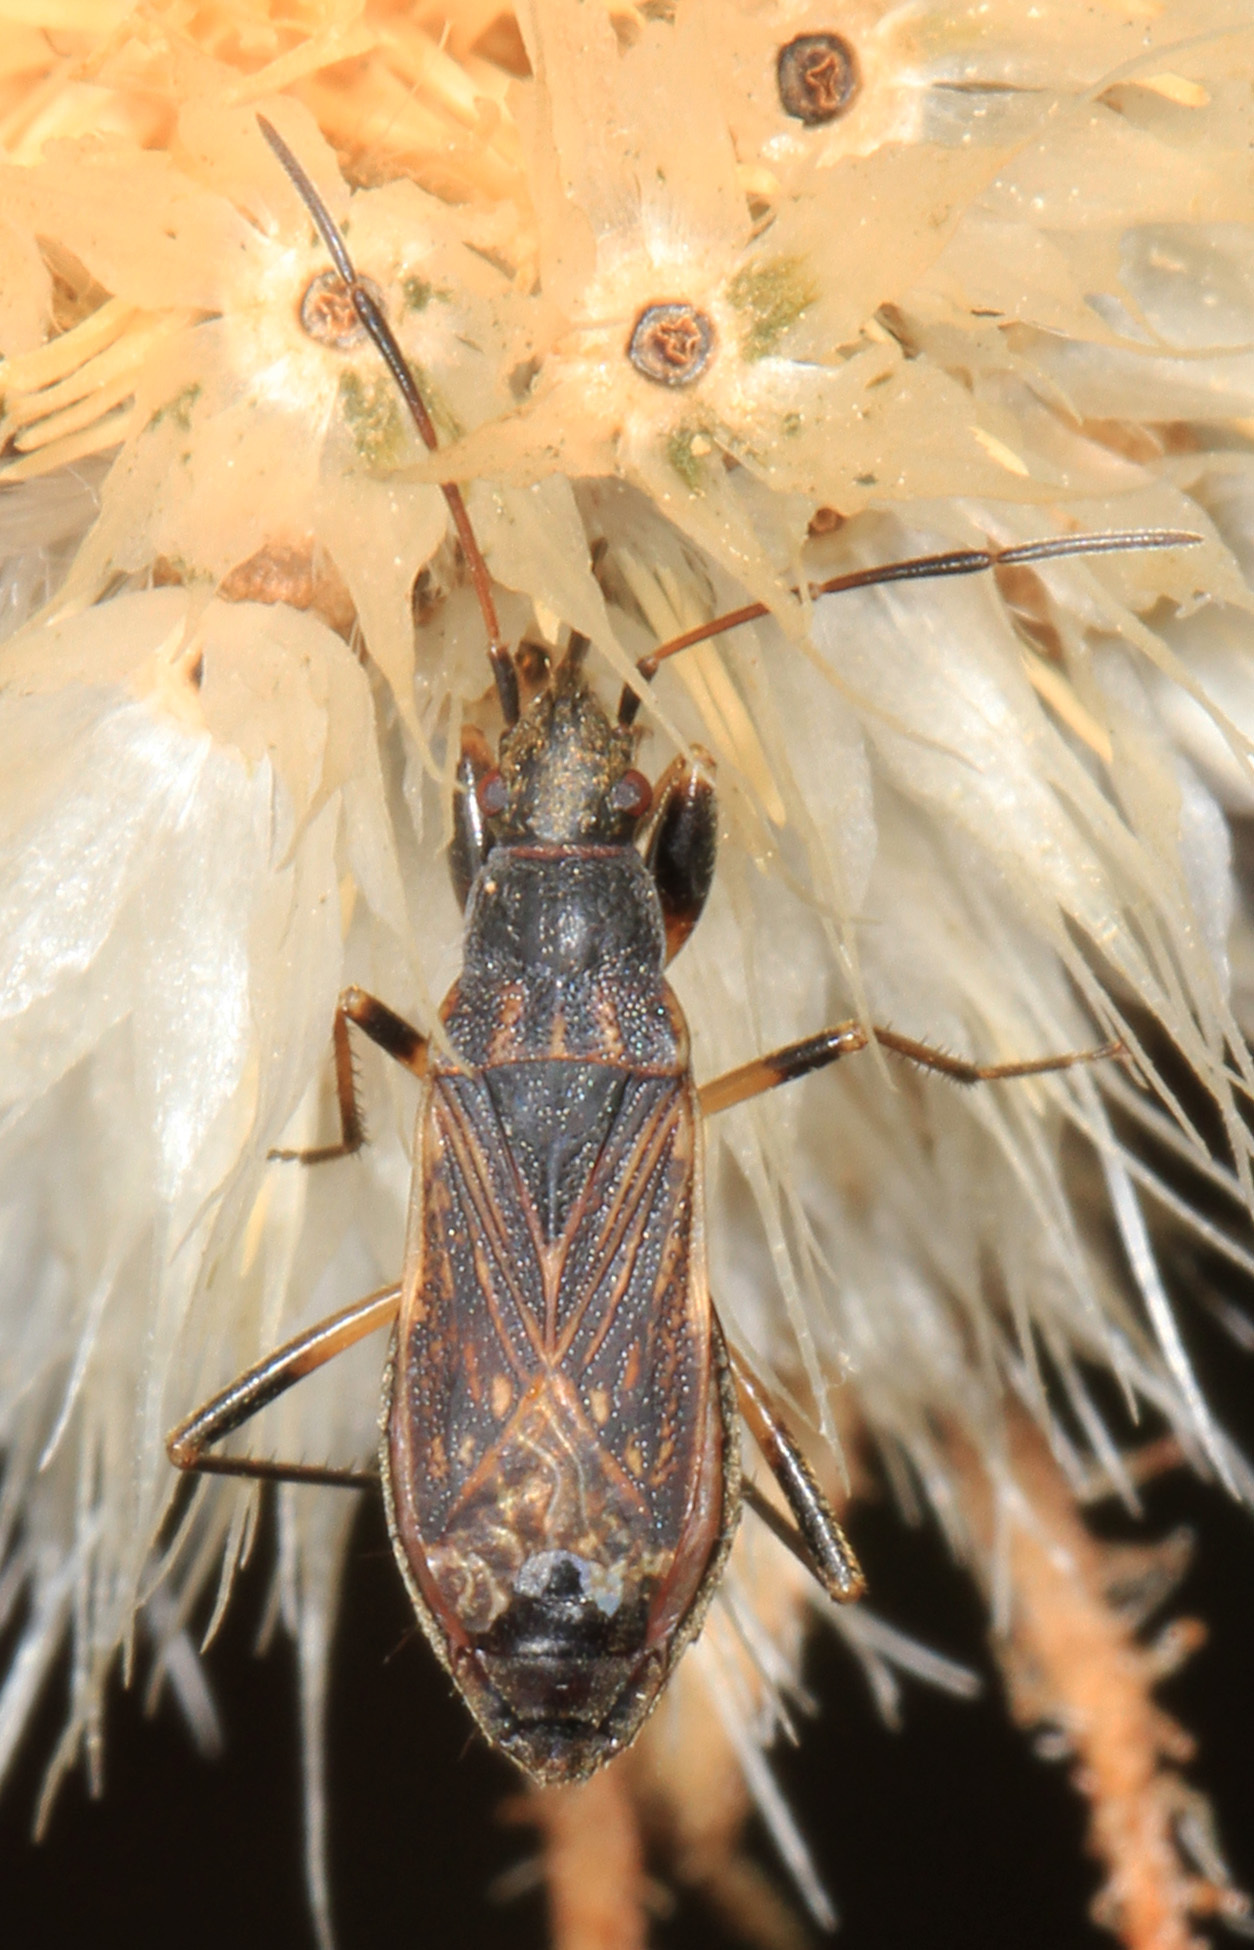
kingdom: Animalia
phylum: Arthropoda
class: Insecta
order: Hemiptera
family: Rhyparochromidae
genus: Zeridoneus
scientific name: Zeridoneus costalis
